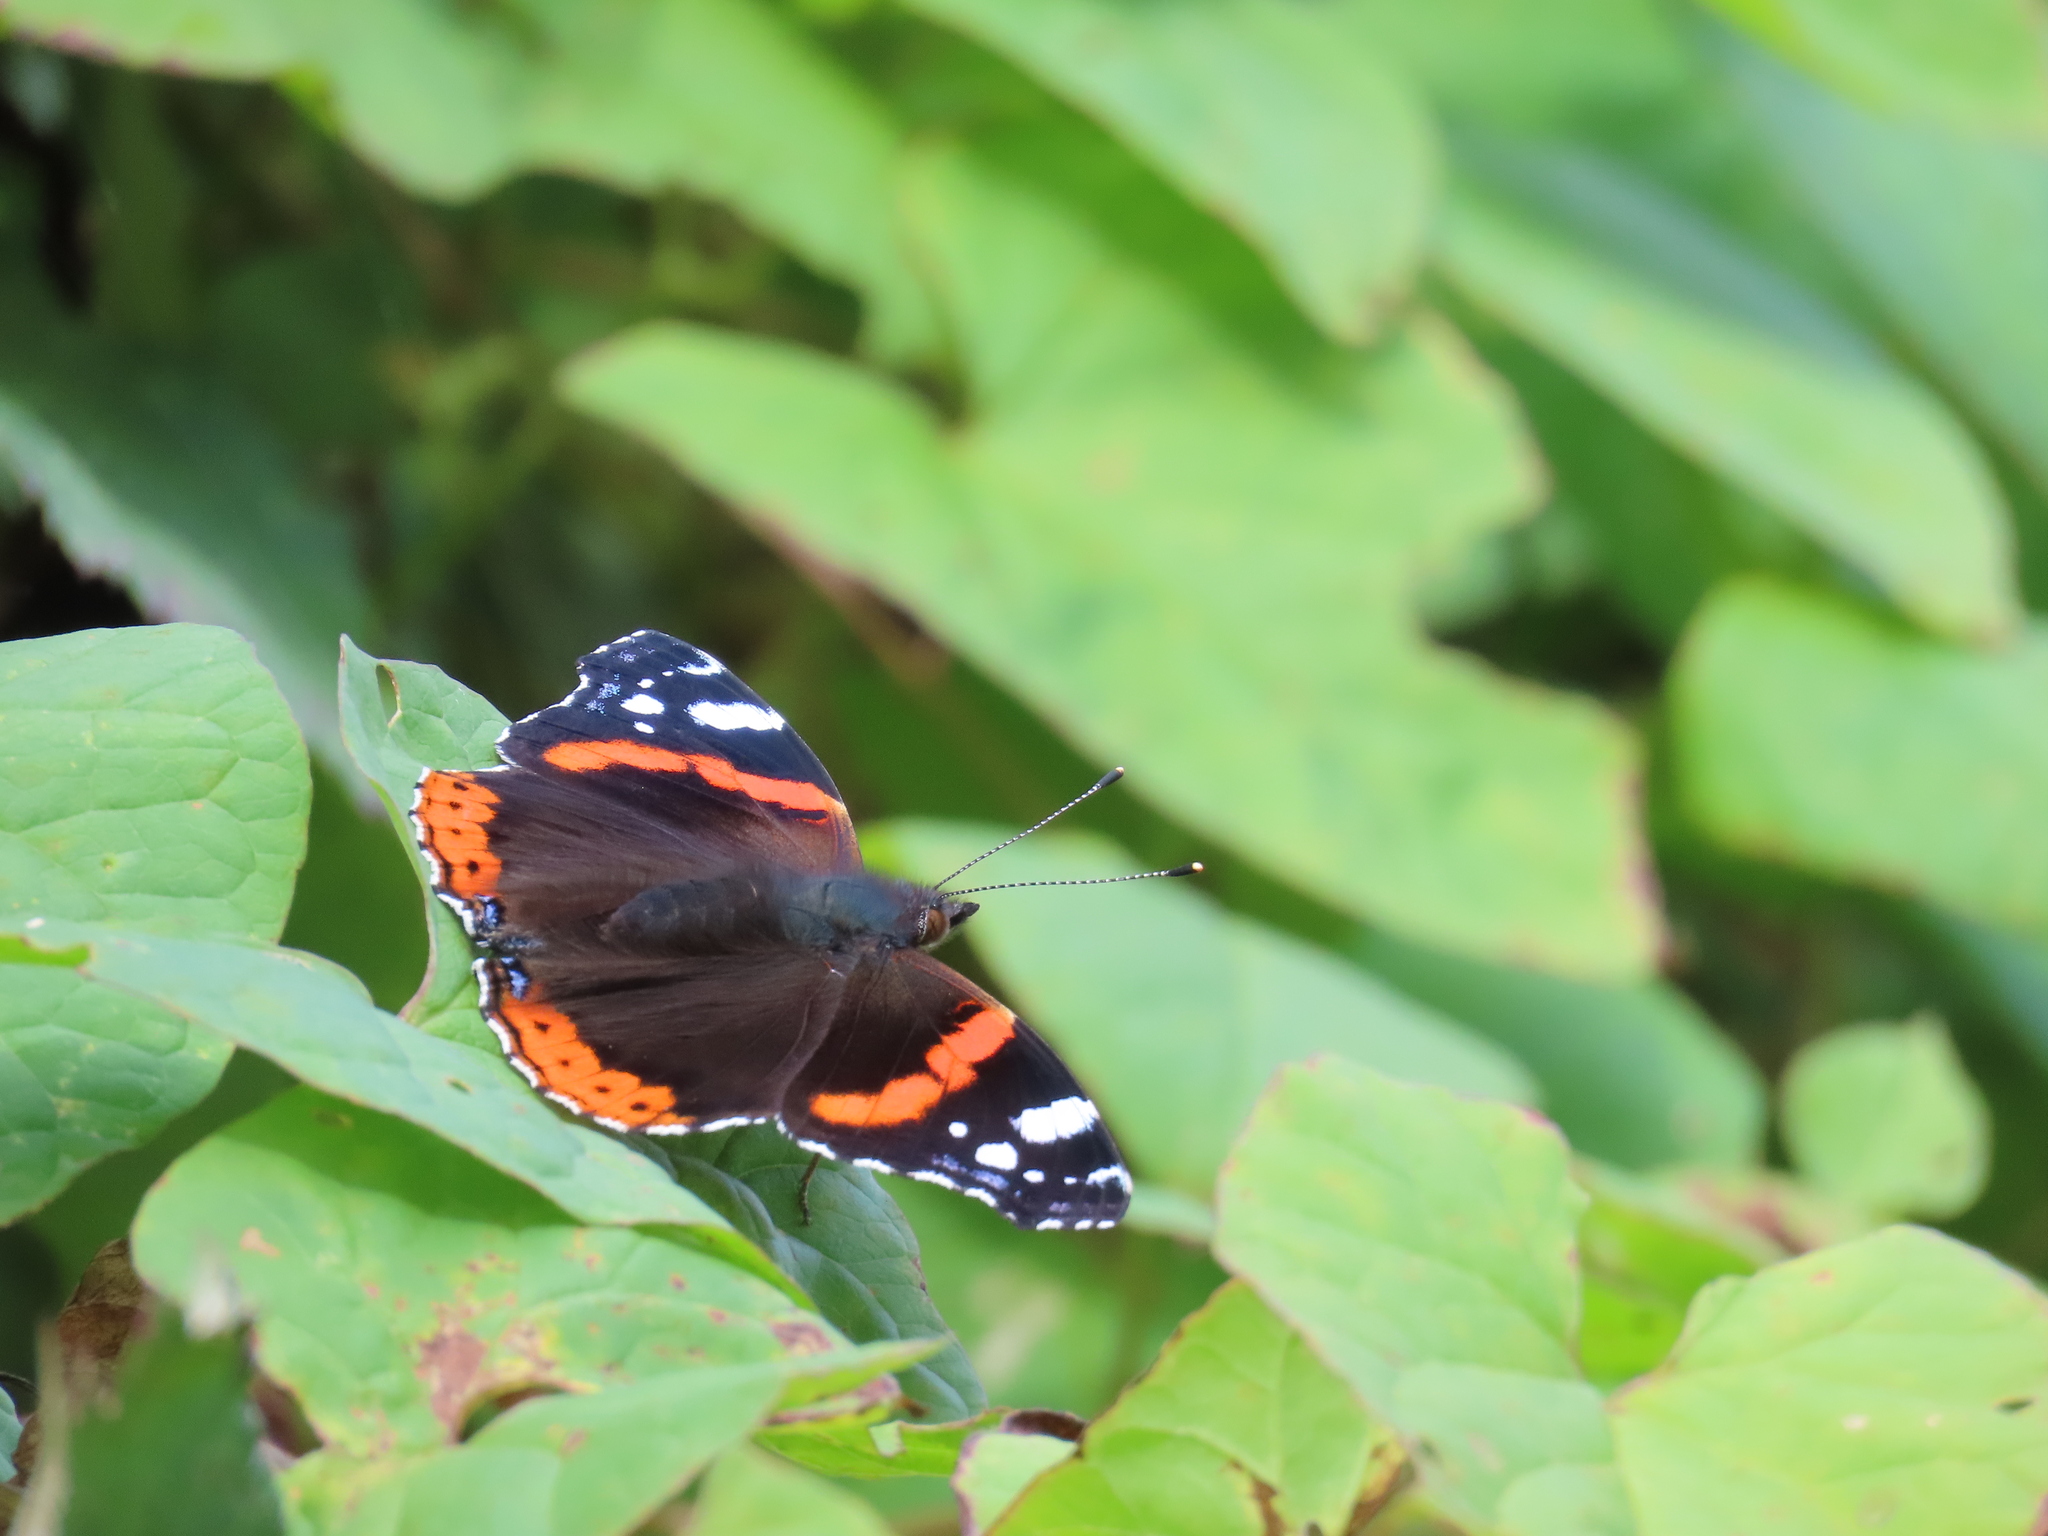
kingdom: Animalia
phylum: Arthropoda
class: Insecta
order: Lepidoptera
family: Nymphalidae
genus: Vanessa
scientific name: Vanessa atalanta
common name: Red admiral
